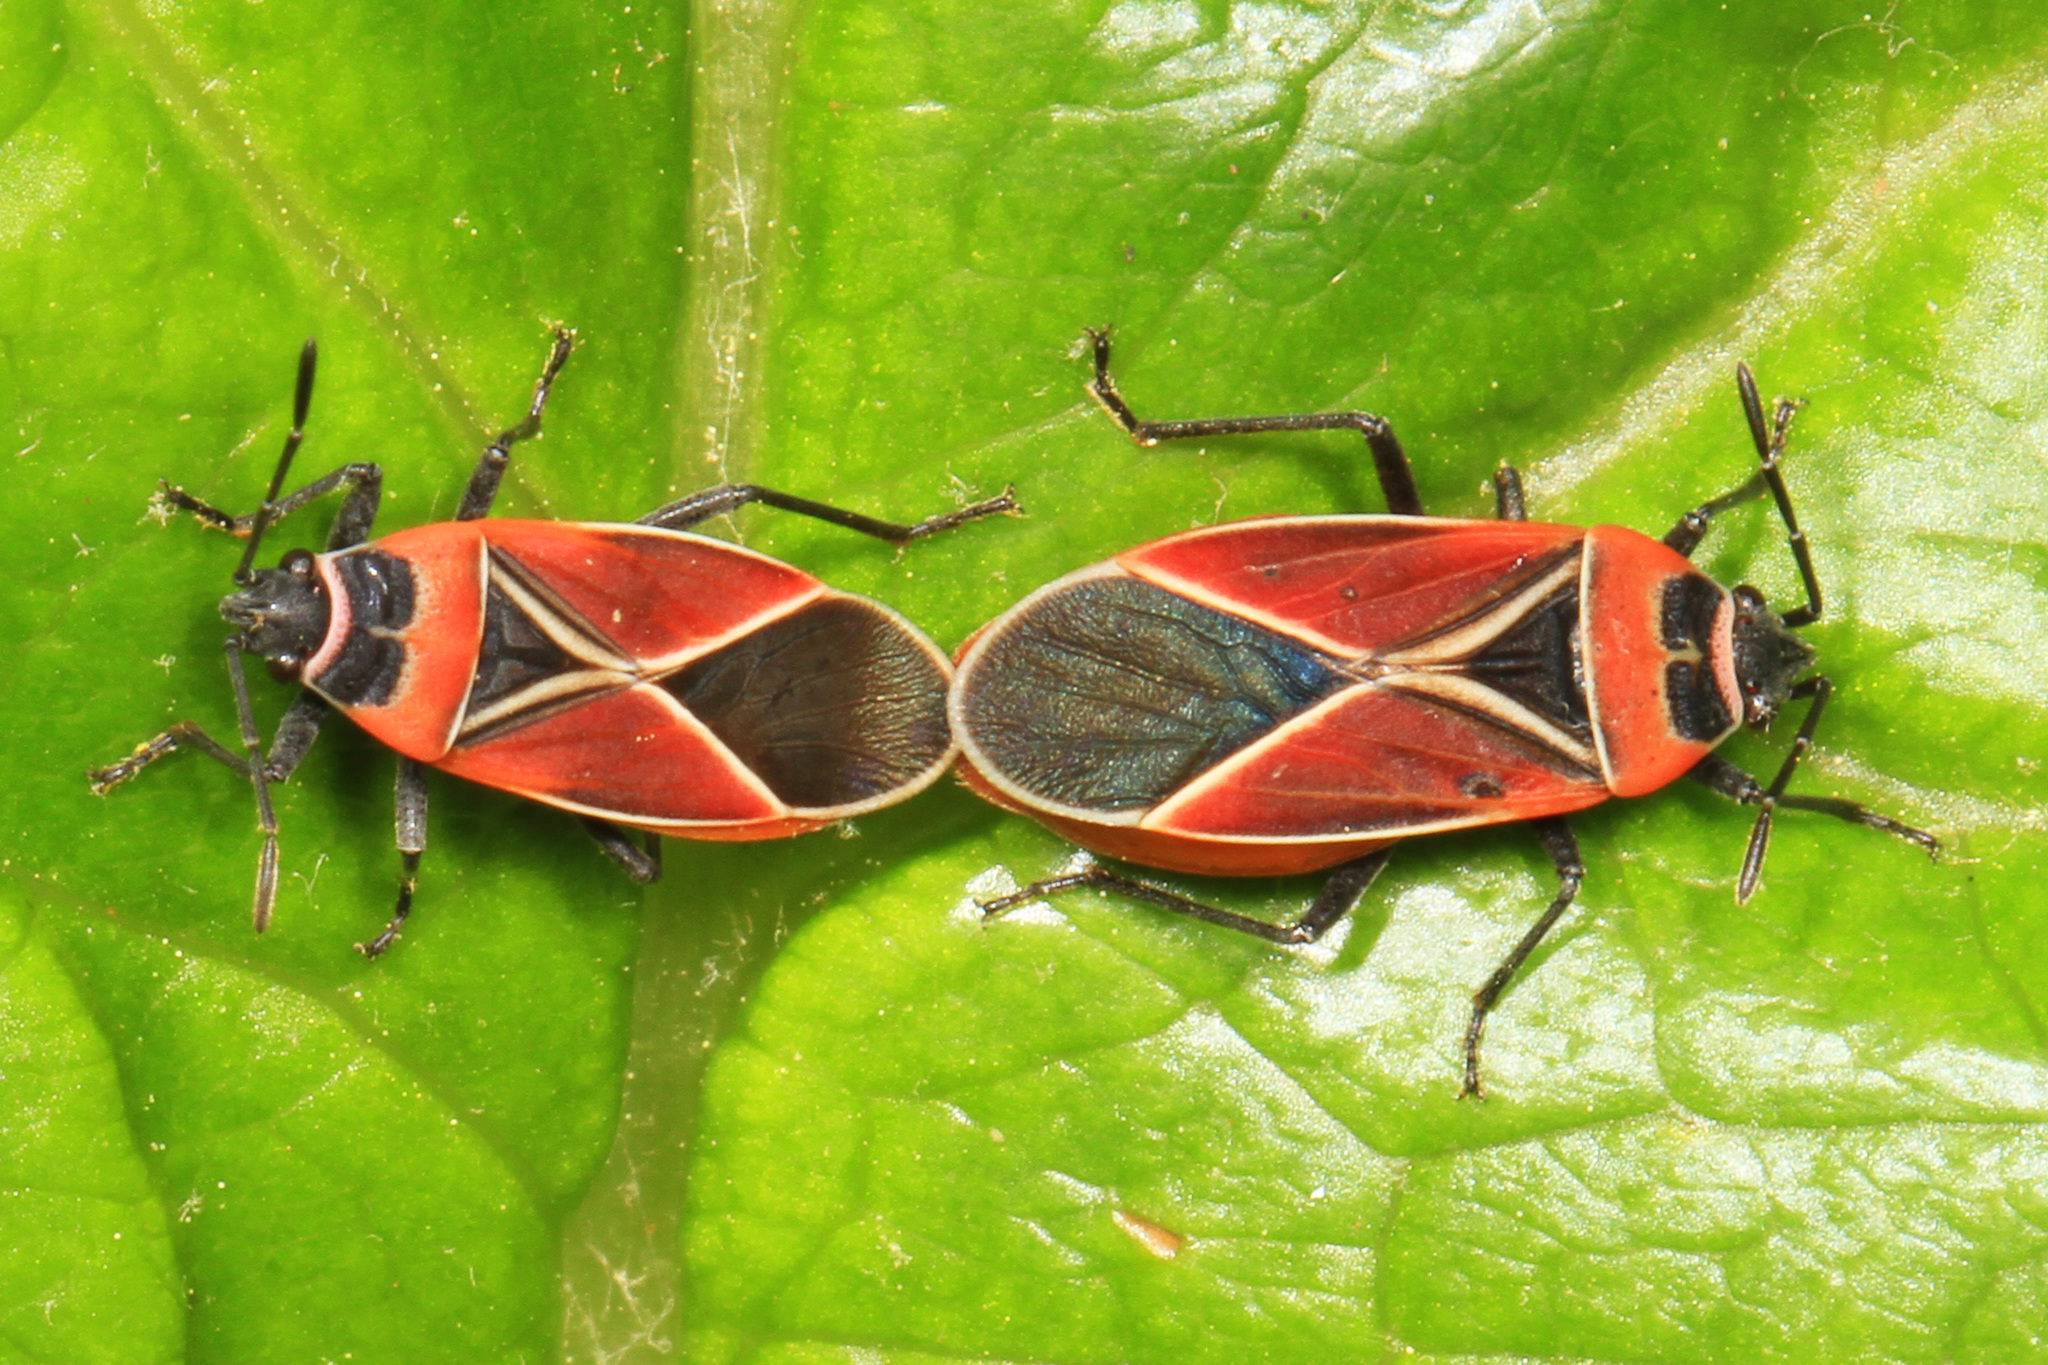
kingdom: Animalia
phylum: Arthropoda
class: Insecta
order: Hemiptera
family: Lygaeidae
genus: Neacoryphus
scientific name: Neacoryphus bicrucis
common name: Lygaeid bug
